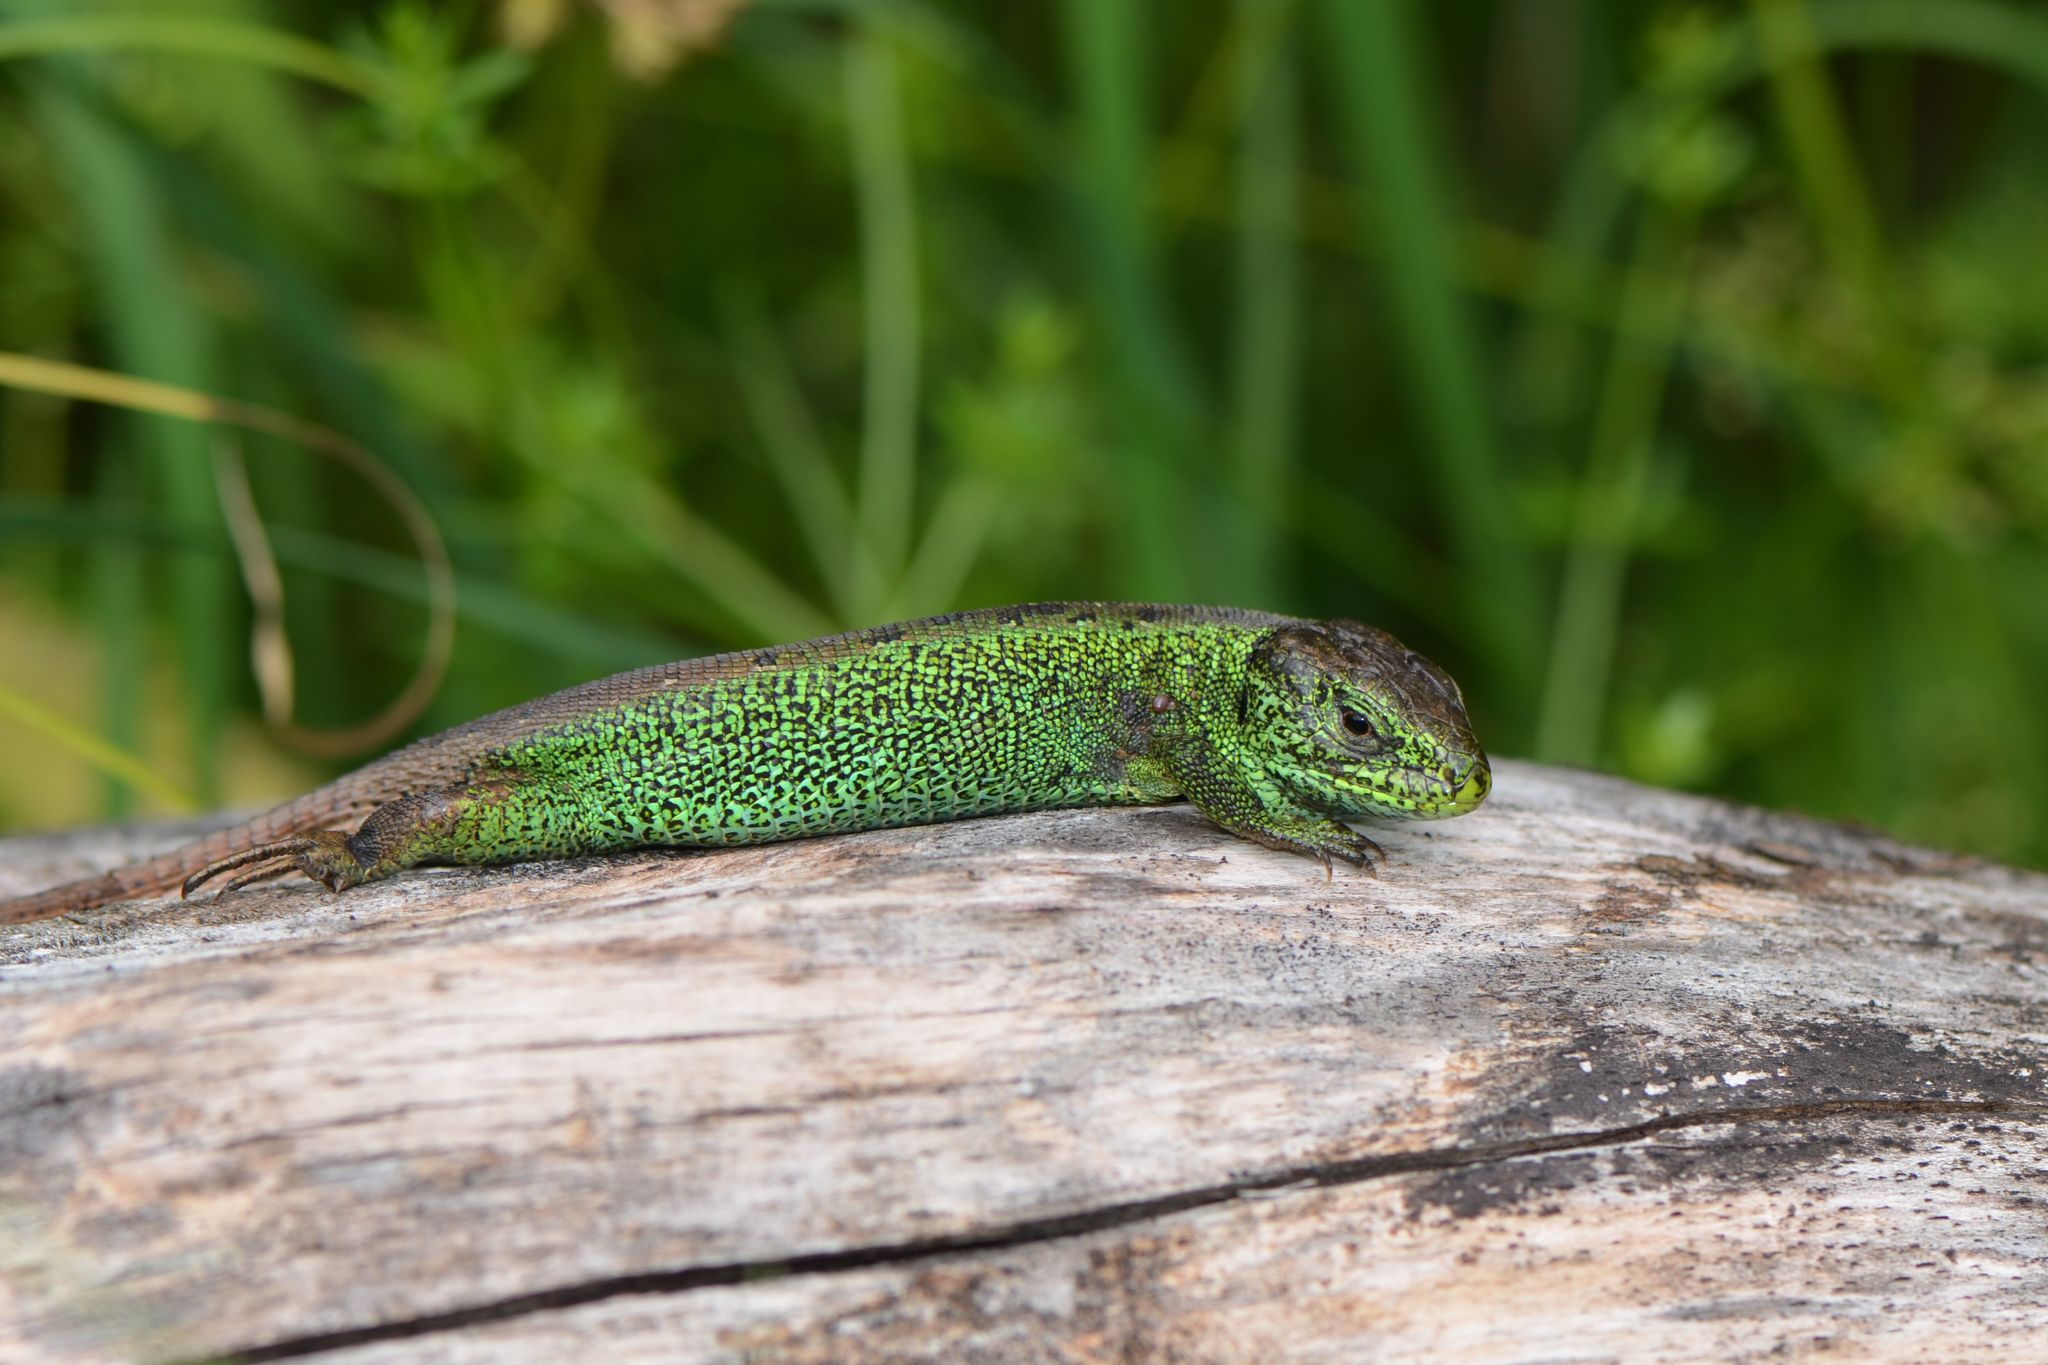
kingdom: Animalia
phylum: Chordata
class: Squamata
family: Lacertidae
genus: Lacerta
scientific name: Lacerta agilis
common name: Sand lizard
